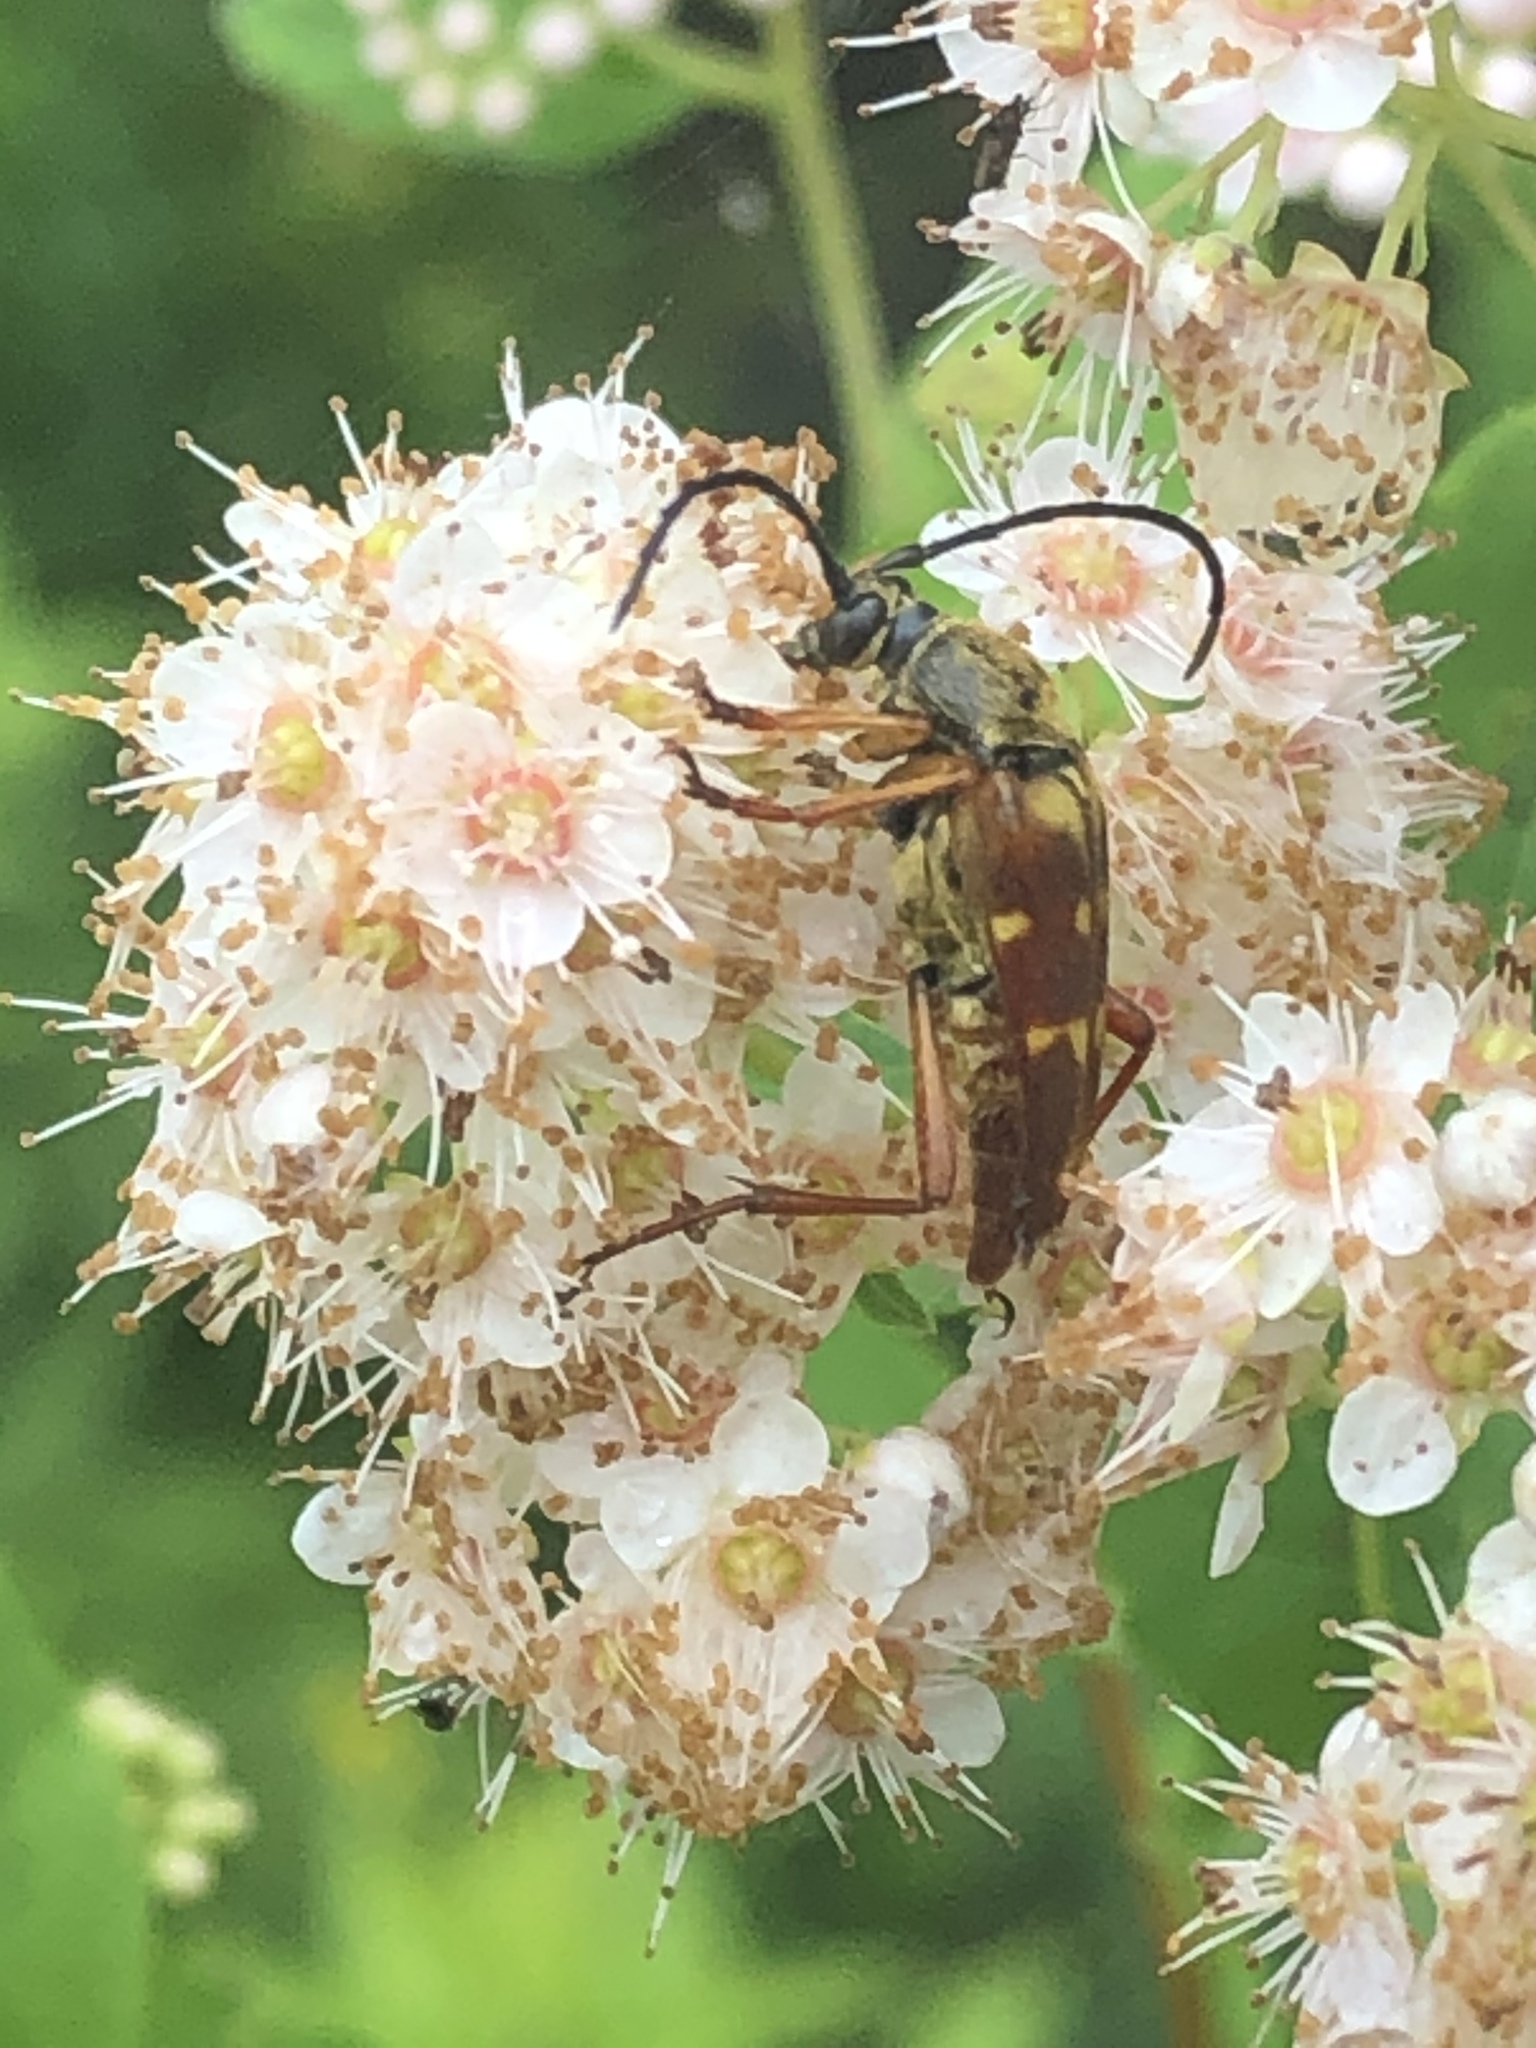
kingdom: Animalia
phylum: Arthropoda
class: Insecta
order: Coleoptera
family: Cerambycidae
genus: Typocerus
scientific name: Typocerus velutinus
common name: Banded longhorn beetle
